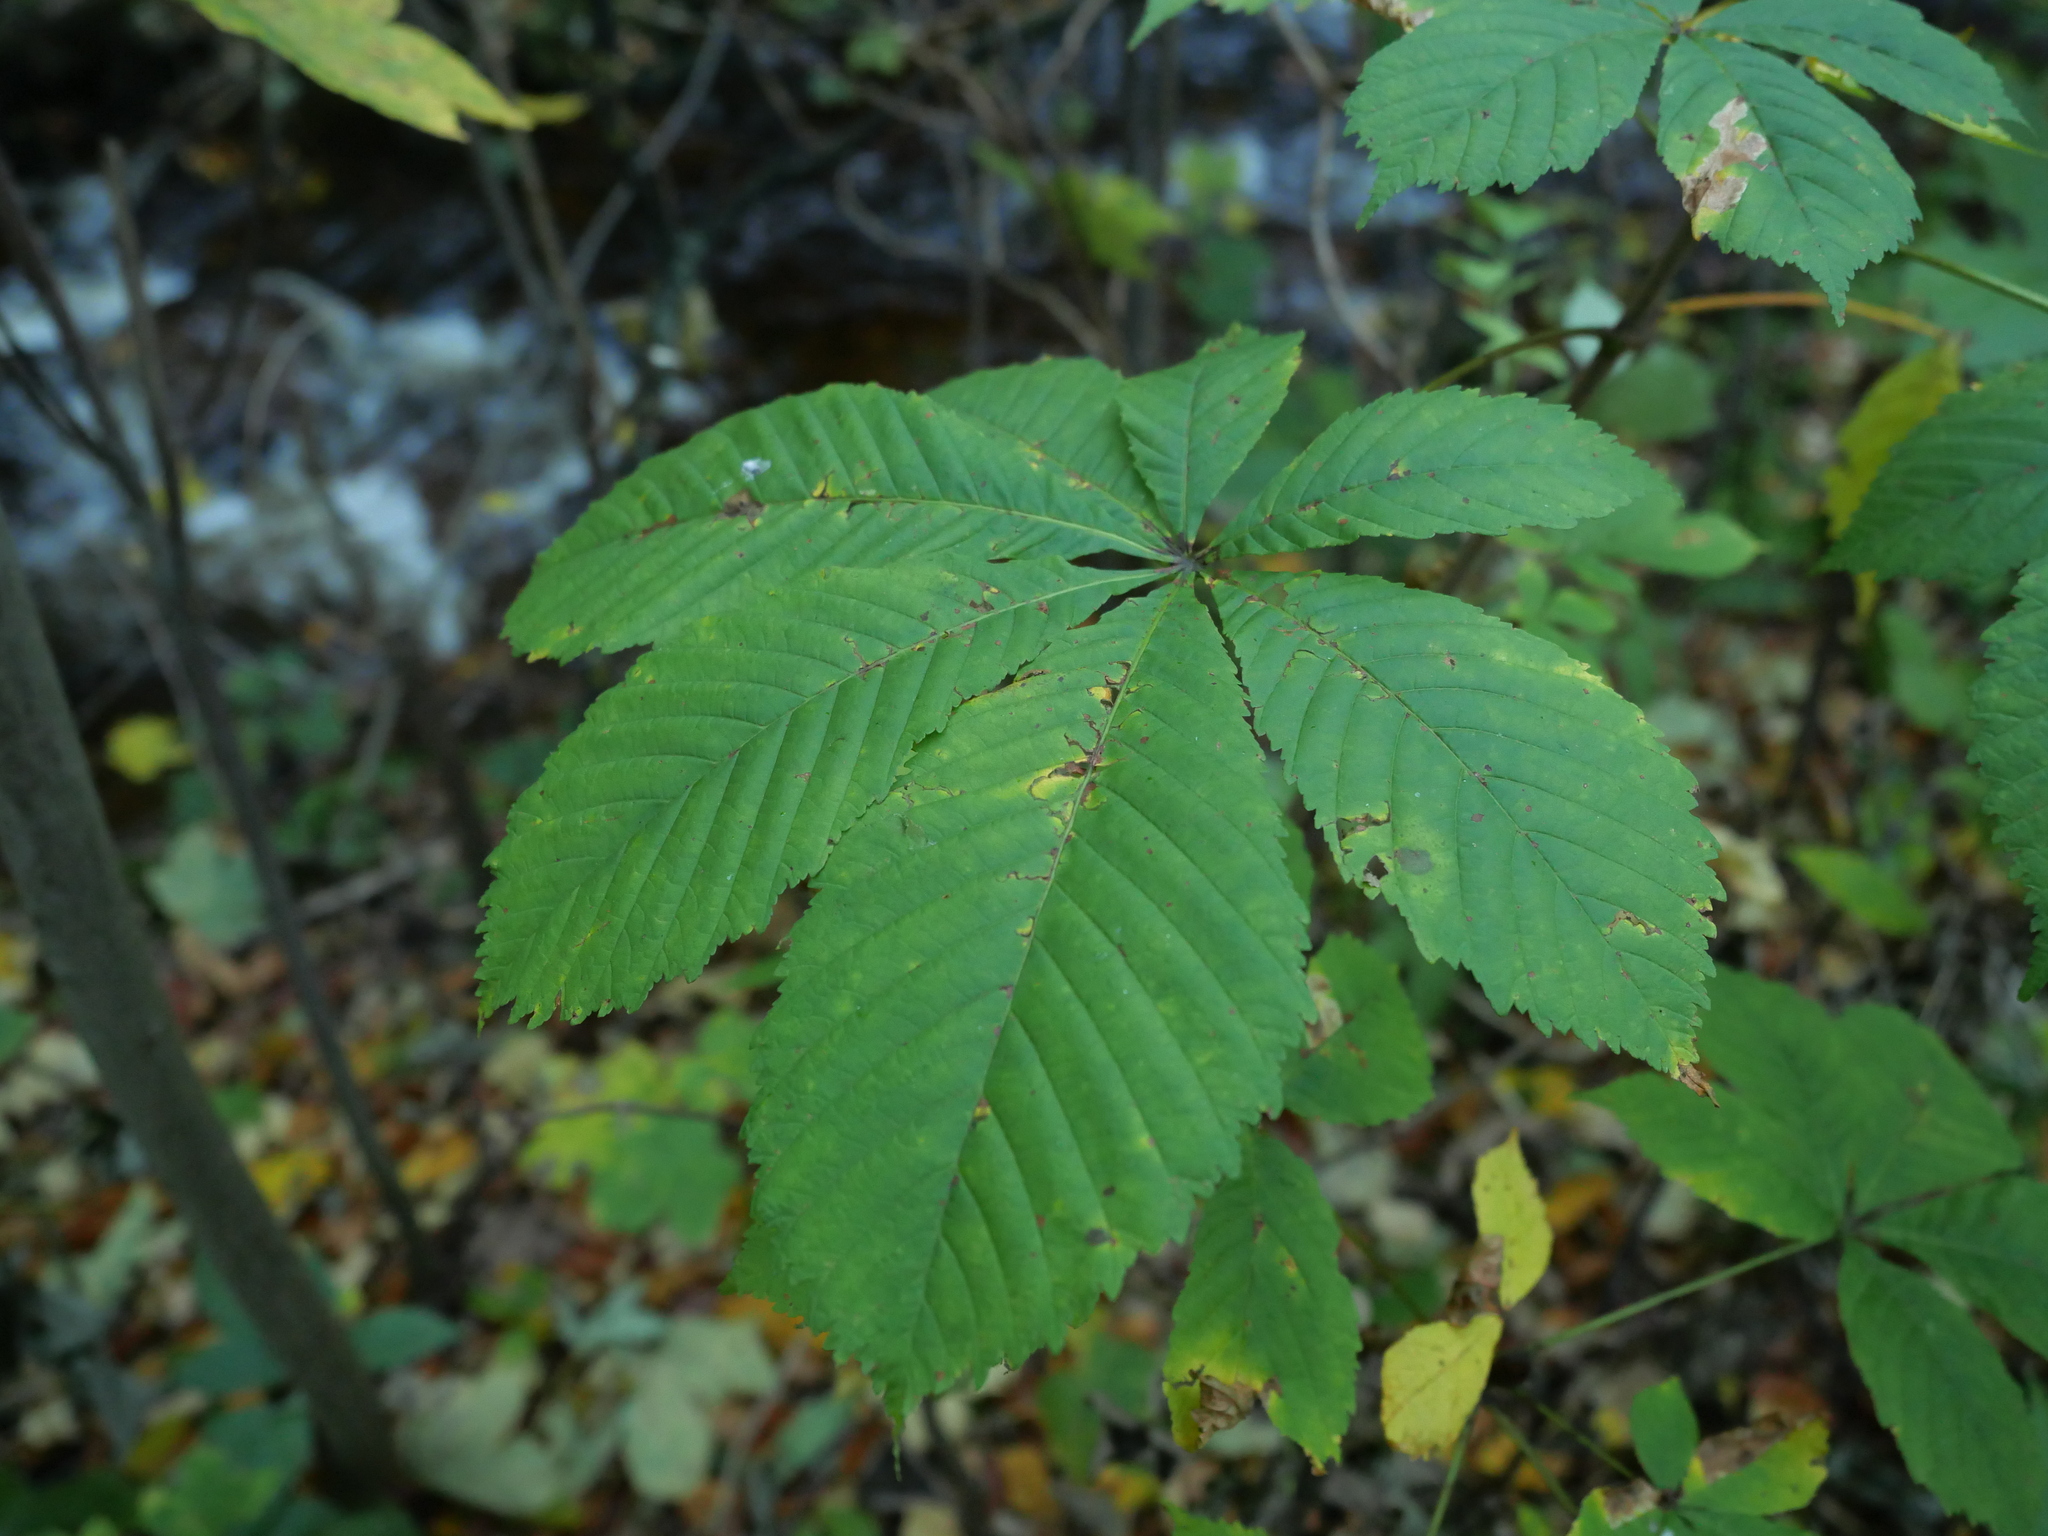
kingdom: Plantae
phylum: Tracheophyta
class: Magnoliopsida
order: Sapindales
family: Sapindaceae
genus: Aesculus
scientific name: Aesculus hippocastanum
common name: Horse-chestnut
